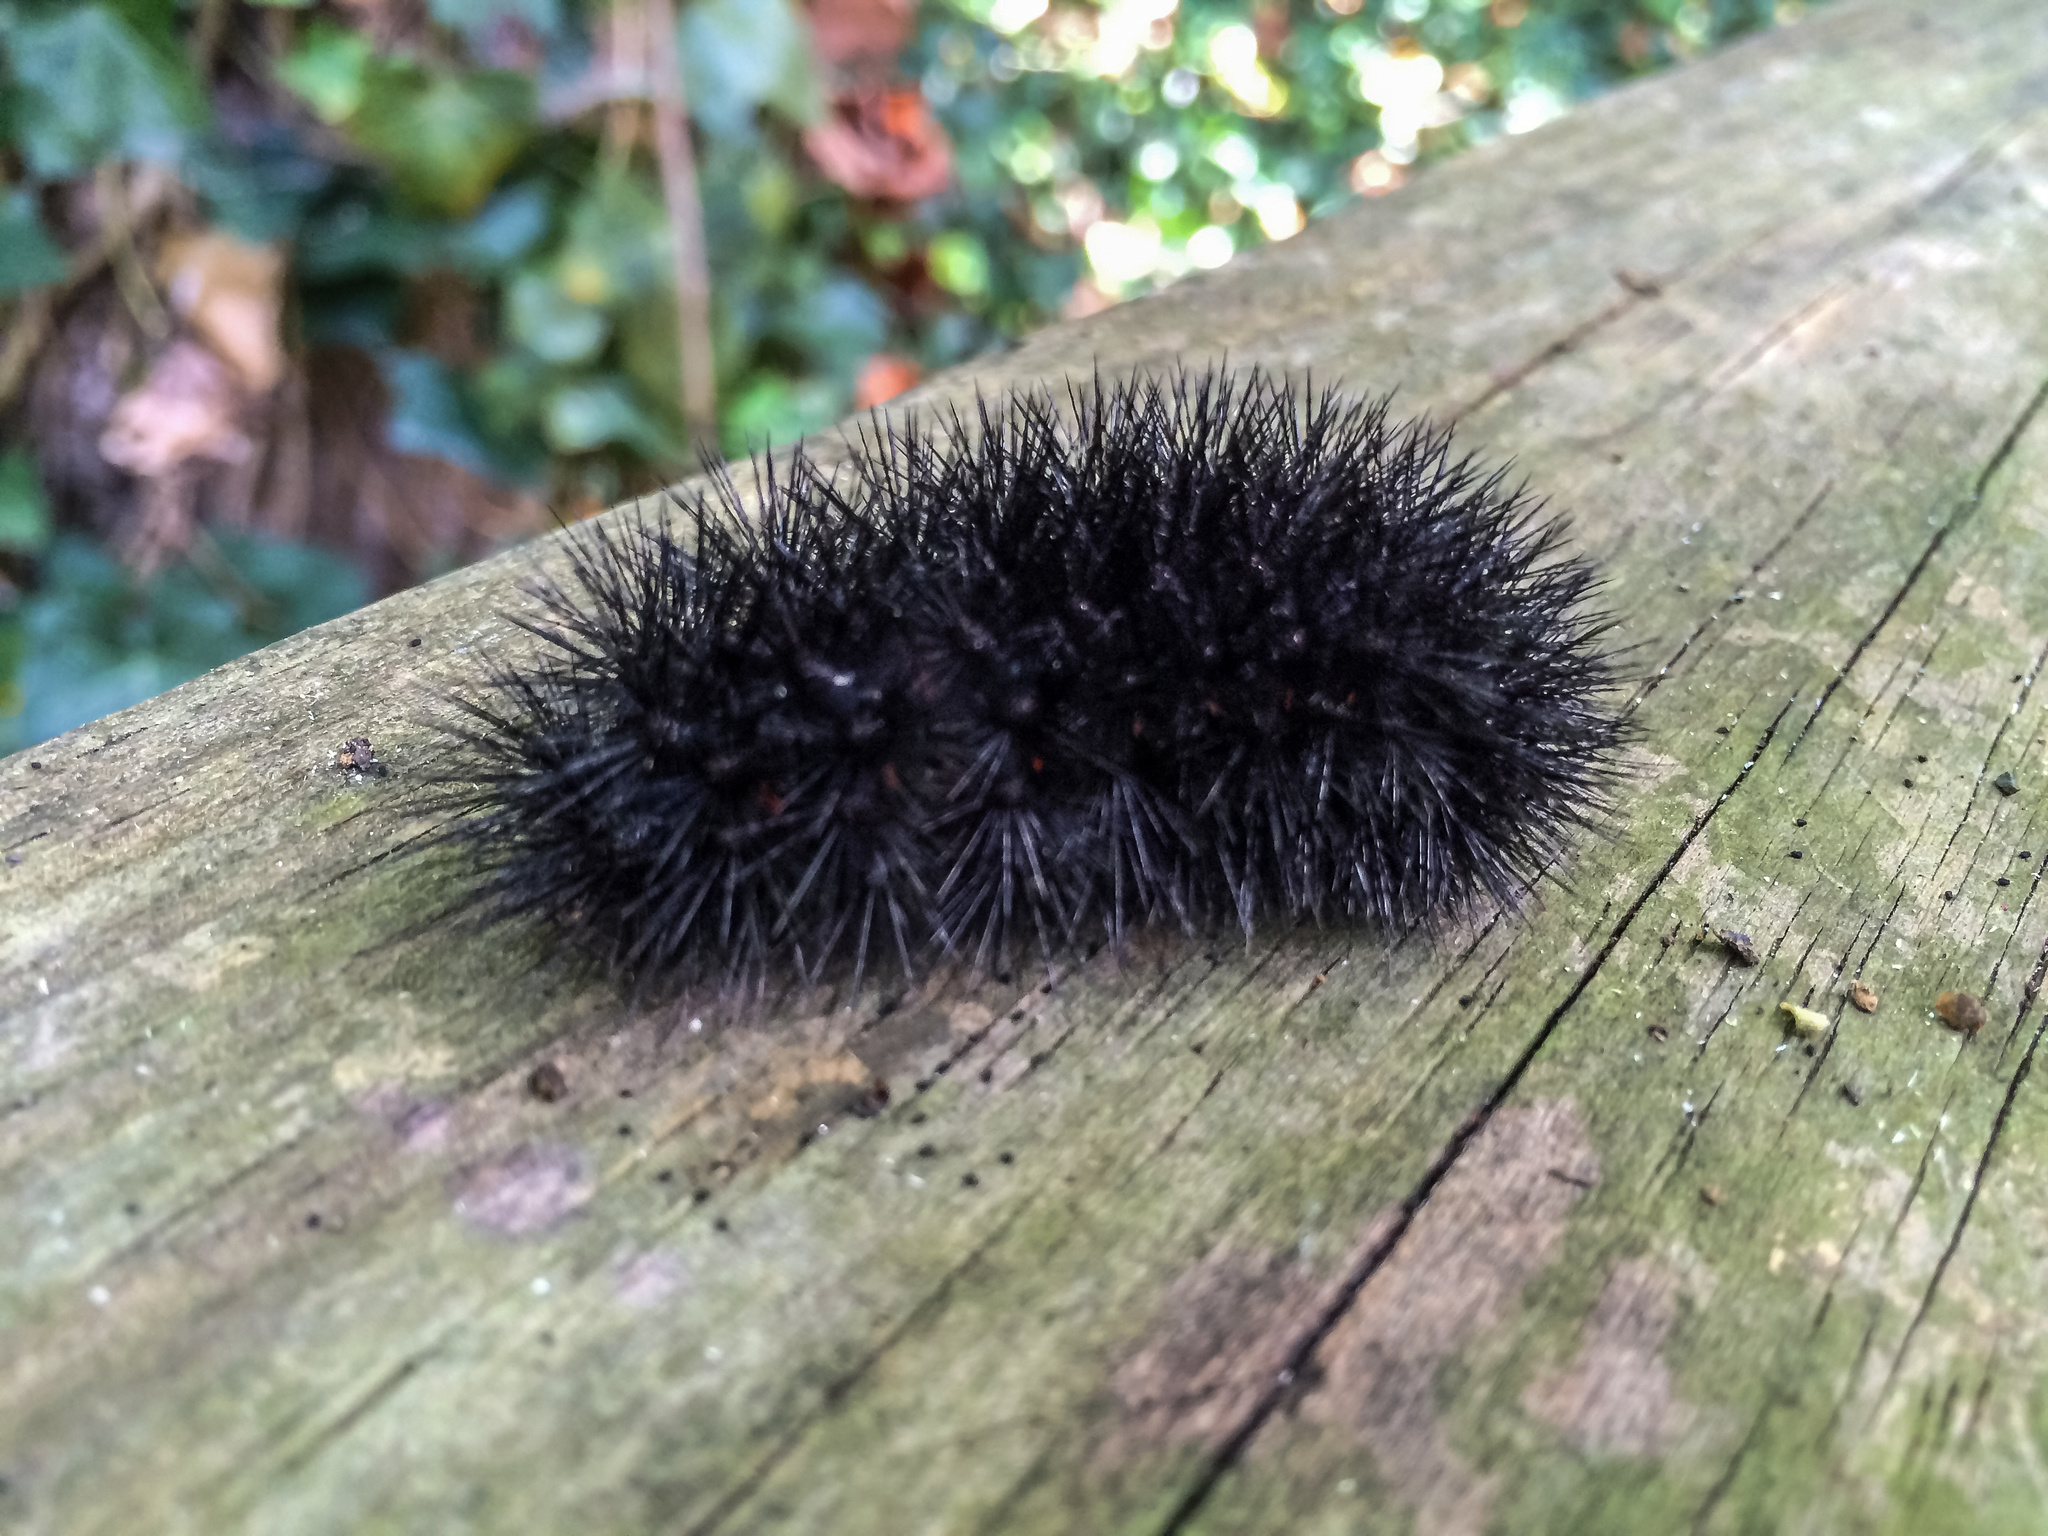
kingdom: Animalia
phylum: Arthropoda
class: Insecta
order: Lepidoptera
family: Erebidae
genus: Hypercompe
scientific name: Hypercompe scribonia
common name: Giant leopard moth
